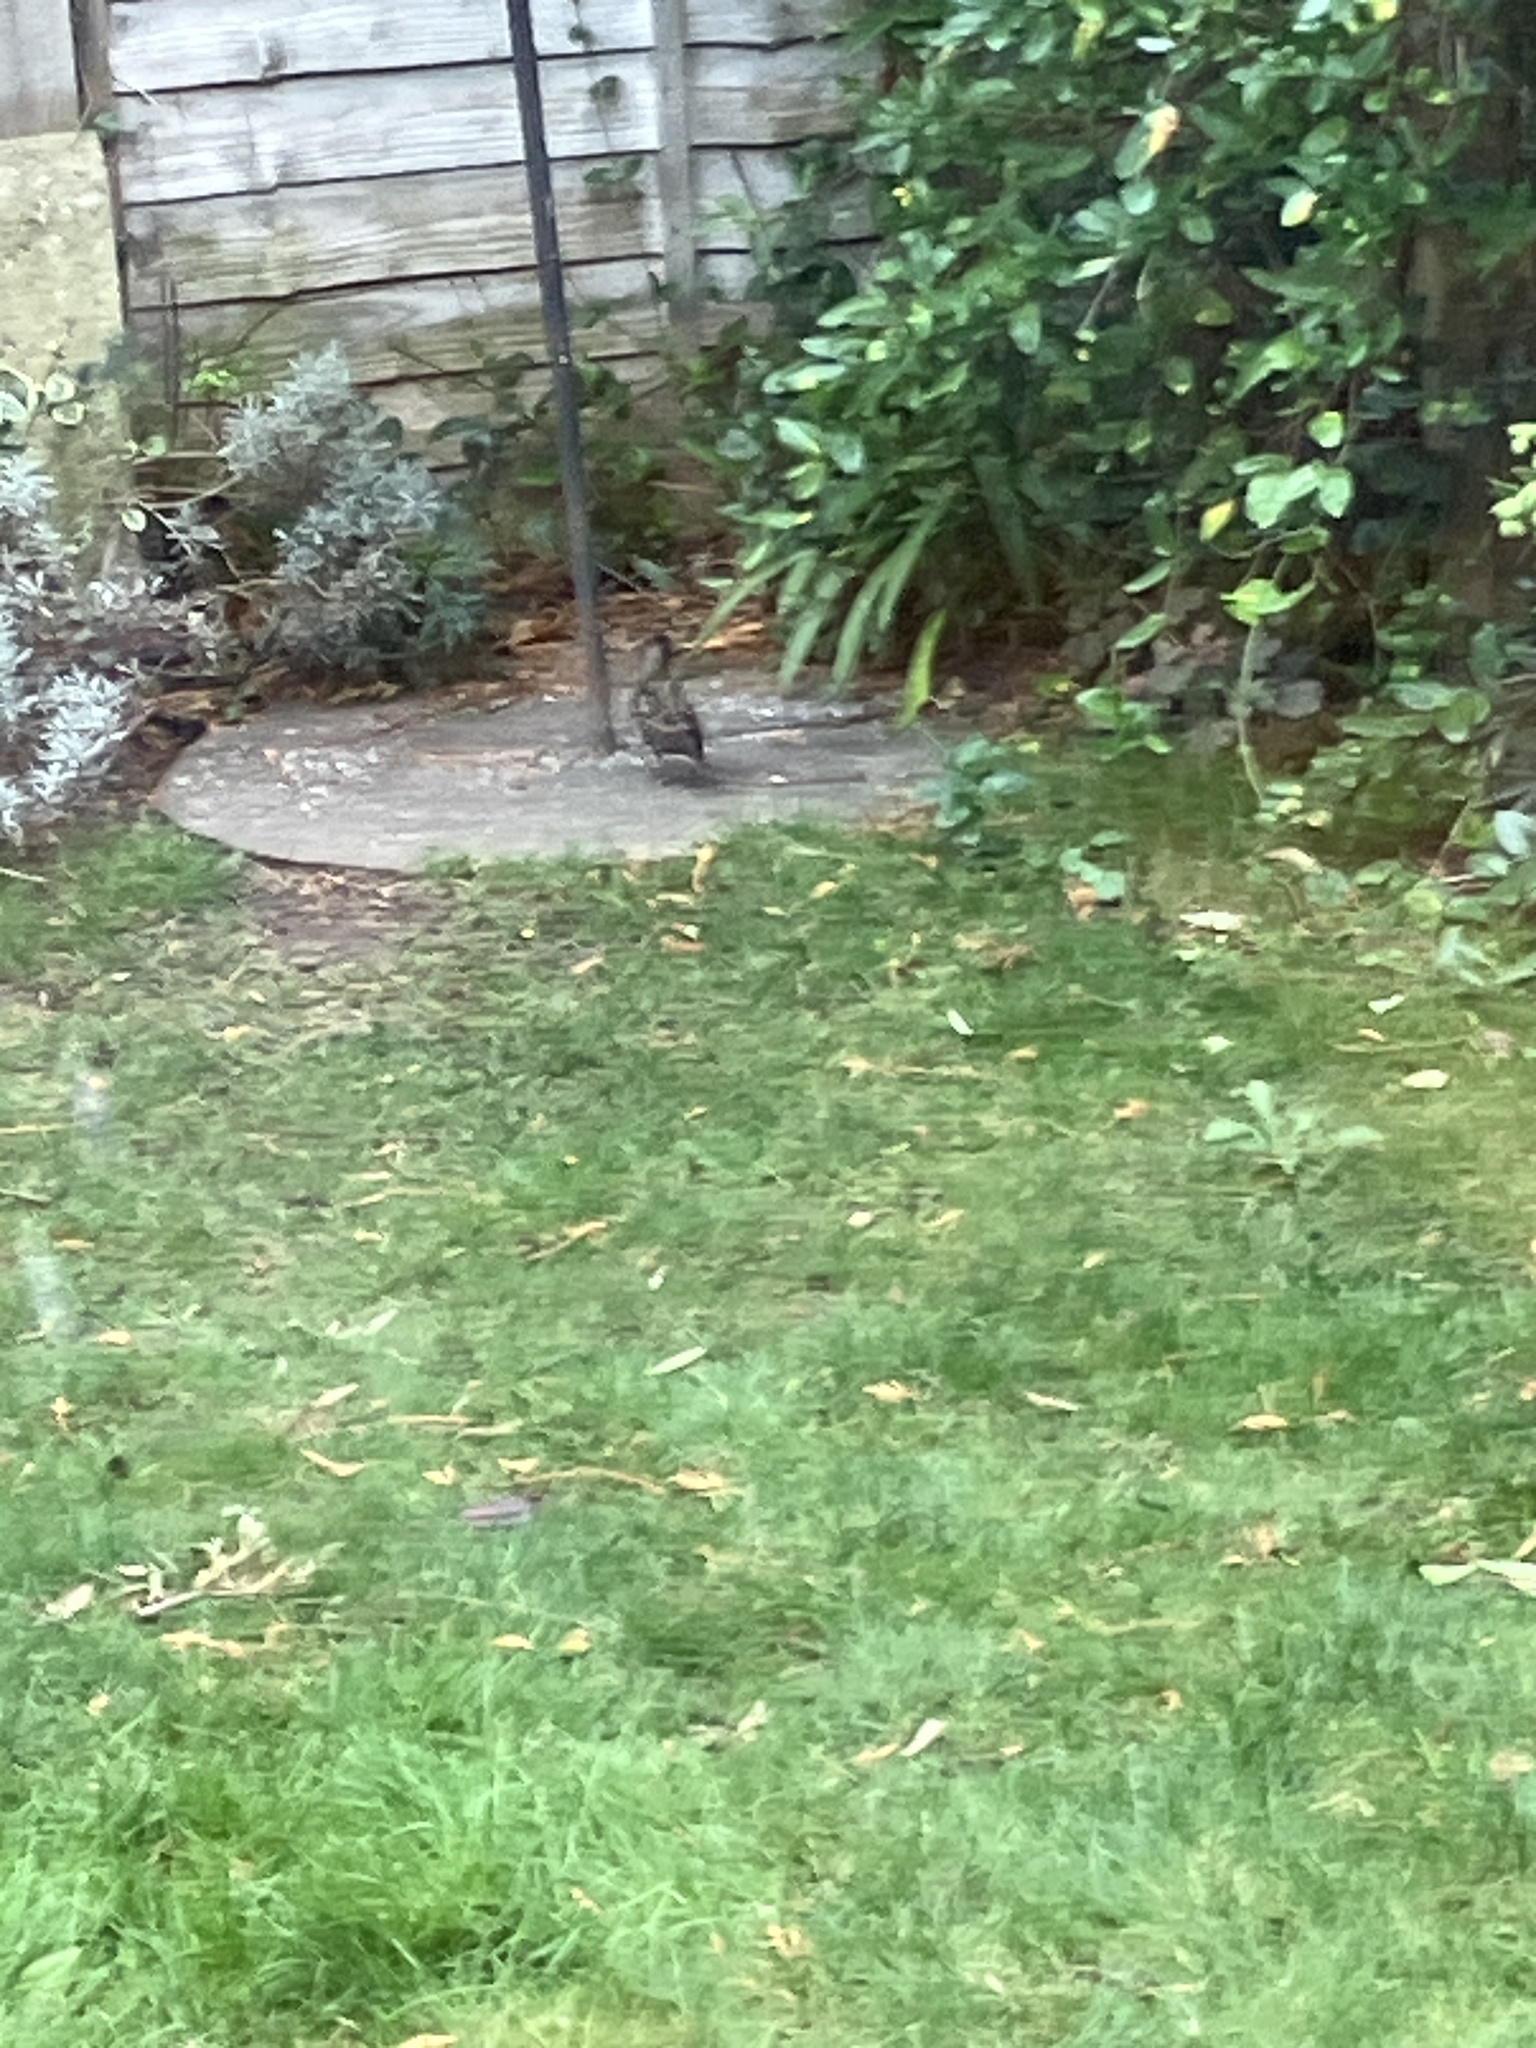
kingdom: Animalia
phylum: Chordata
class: Aves
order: Passeriformes
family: Sturnidae
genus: Sturnus
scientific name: Sturnus vulgaris
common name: Common starling
